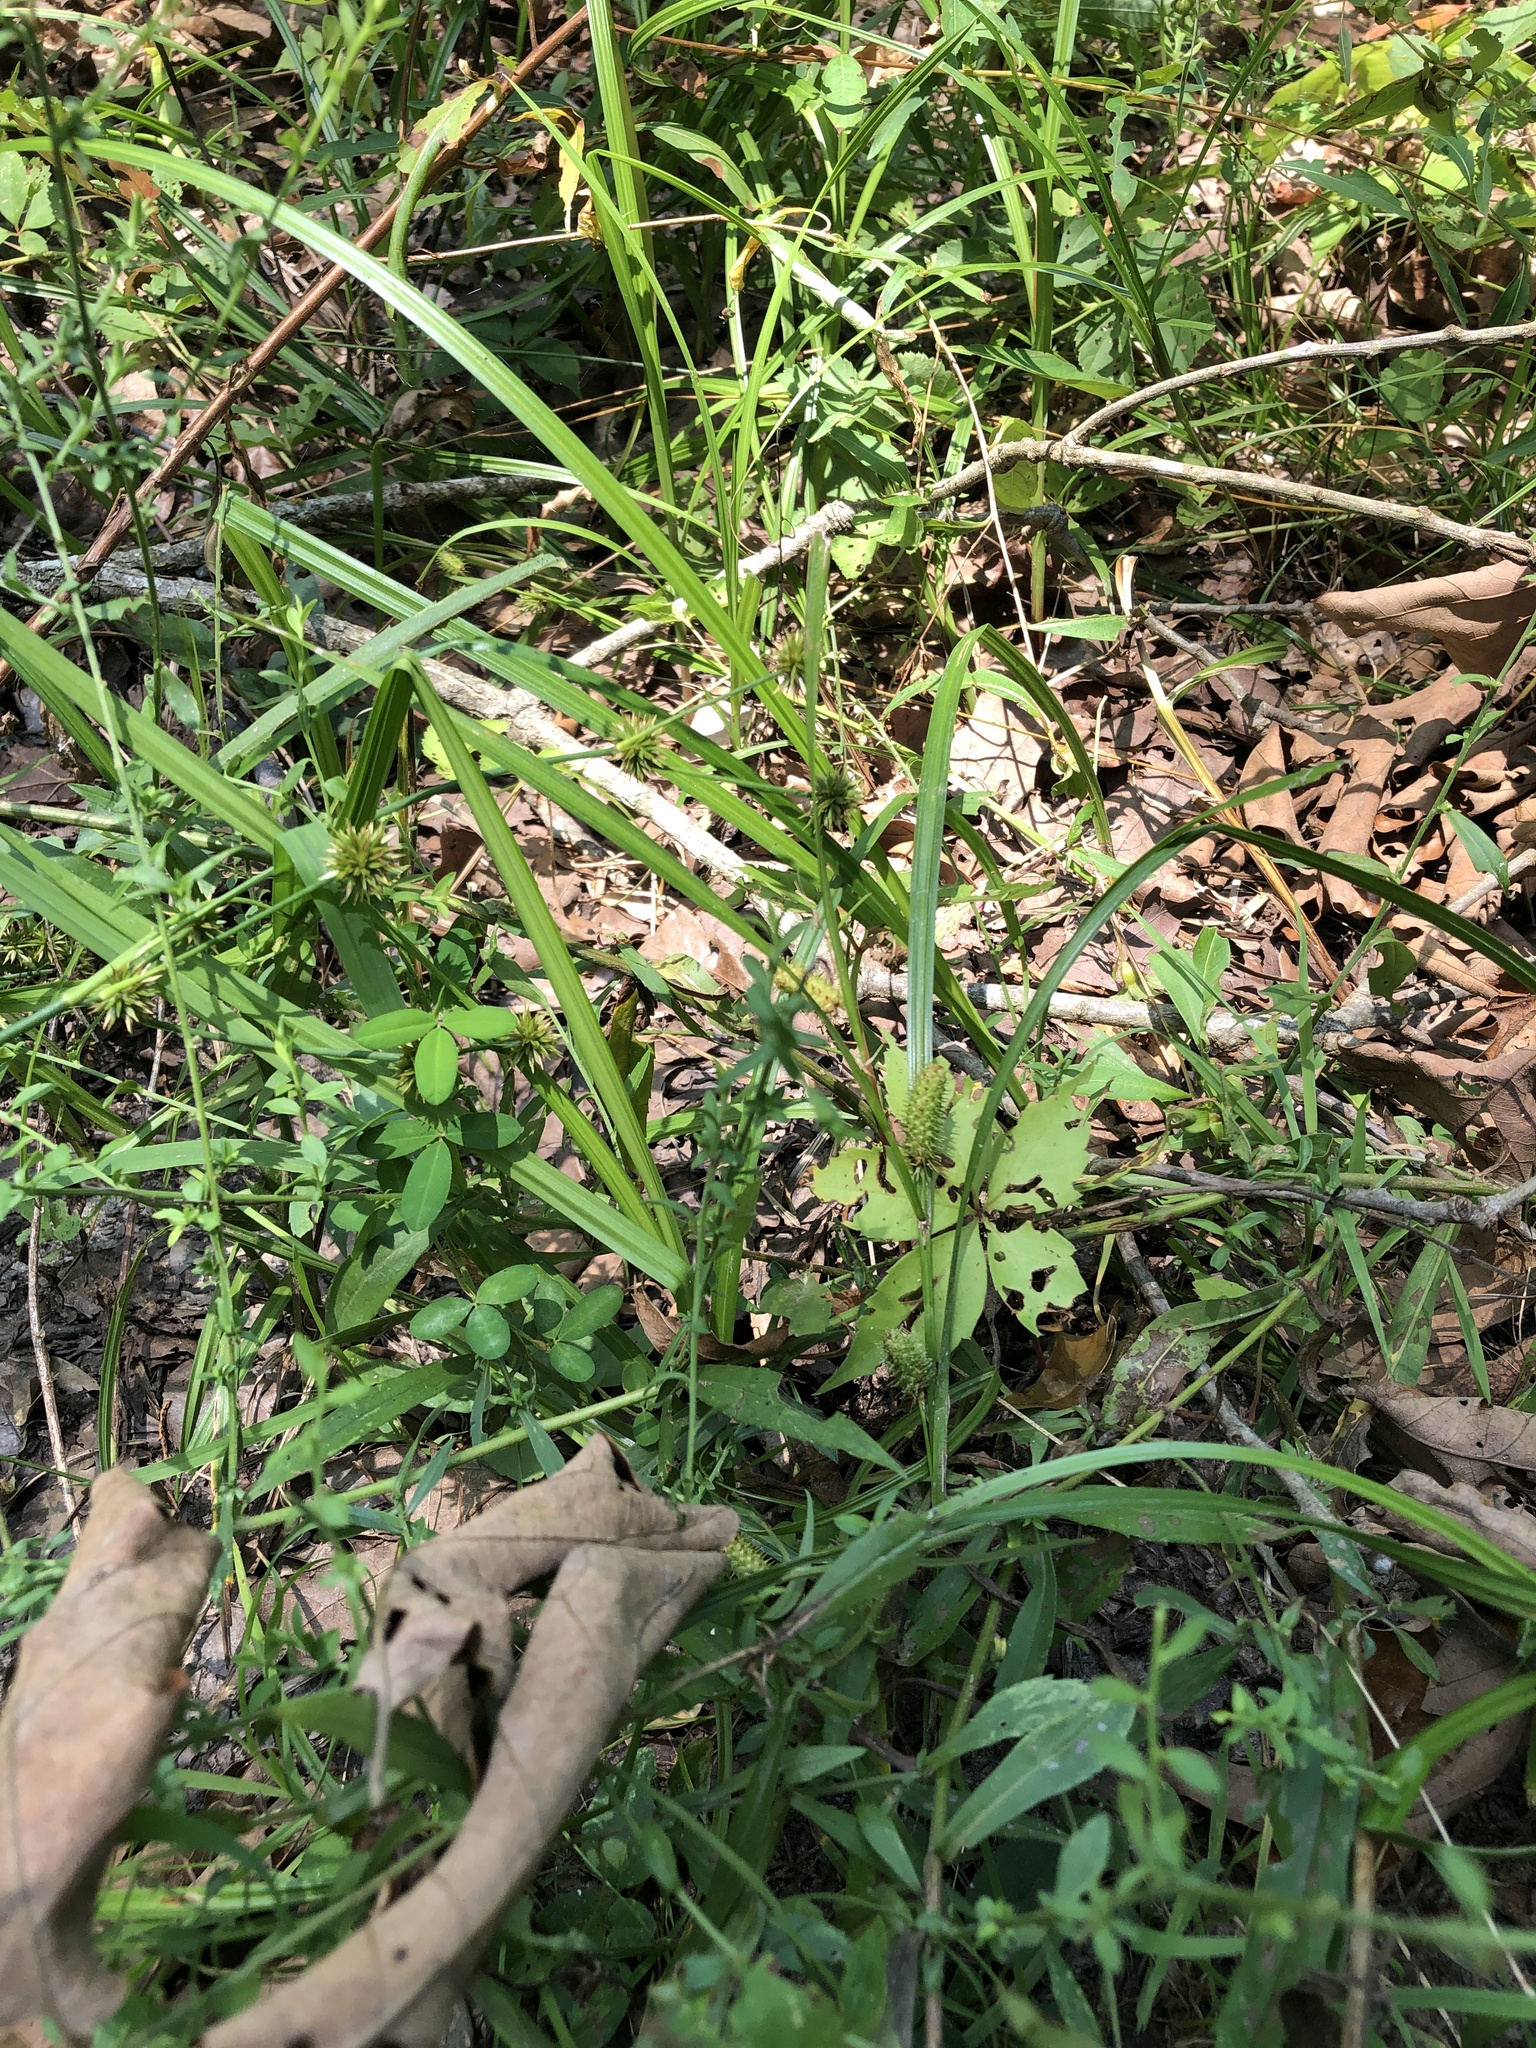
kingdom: Plantae
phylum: Tracheophyta
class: Liliopsida
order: Poales
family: Cyperaceae
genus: Carex
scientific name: Carex aureolensis
